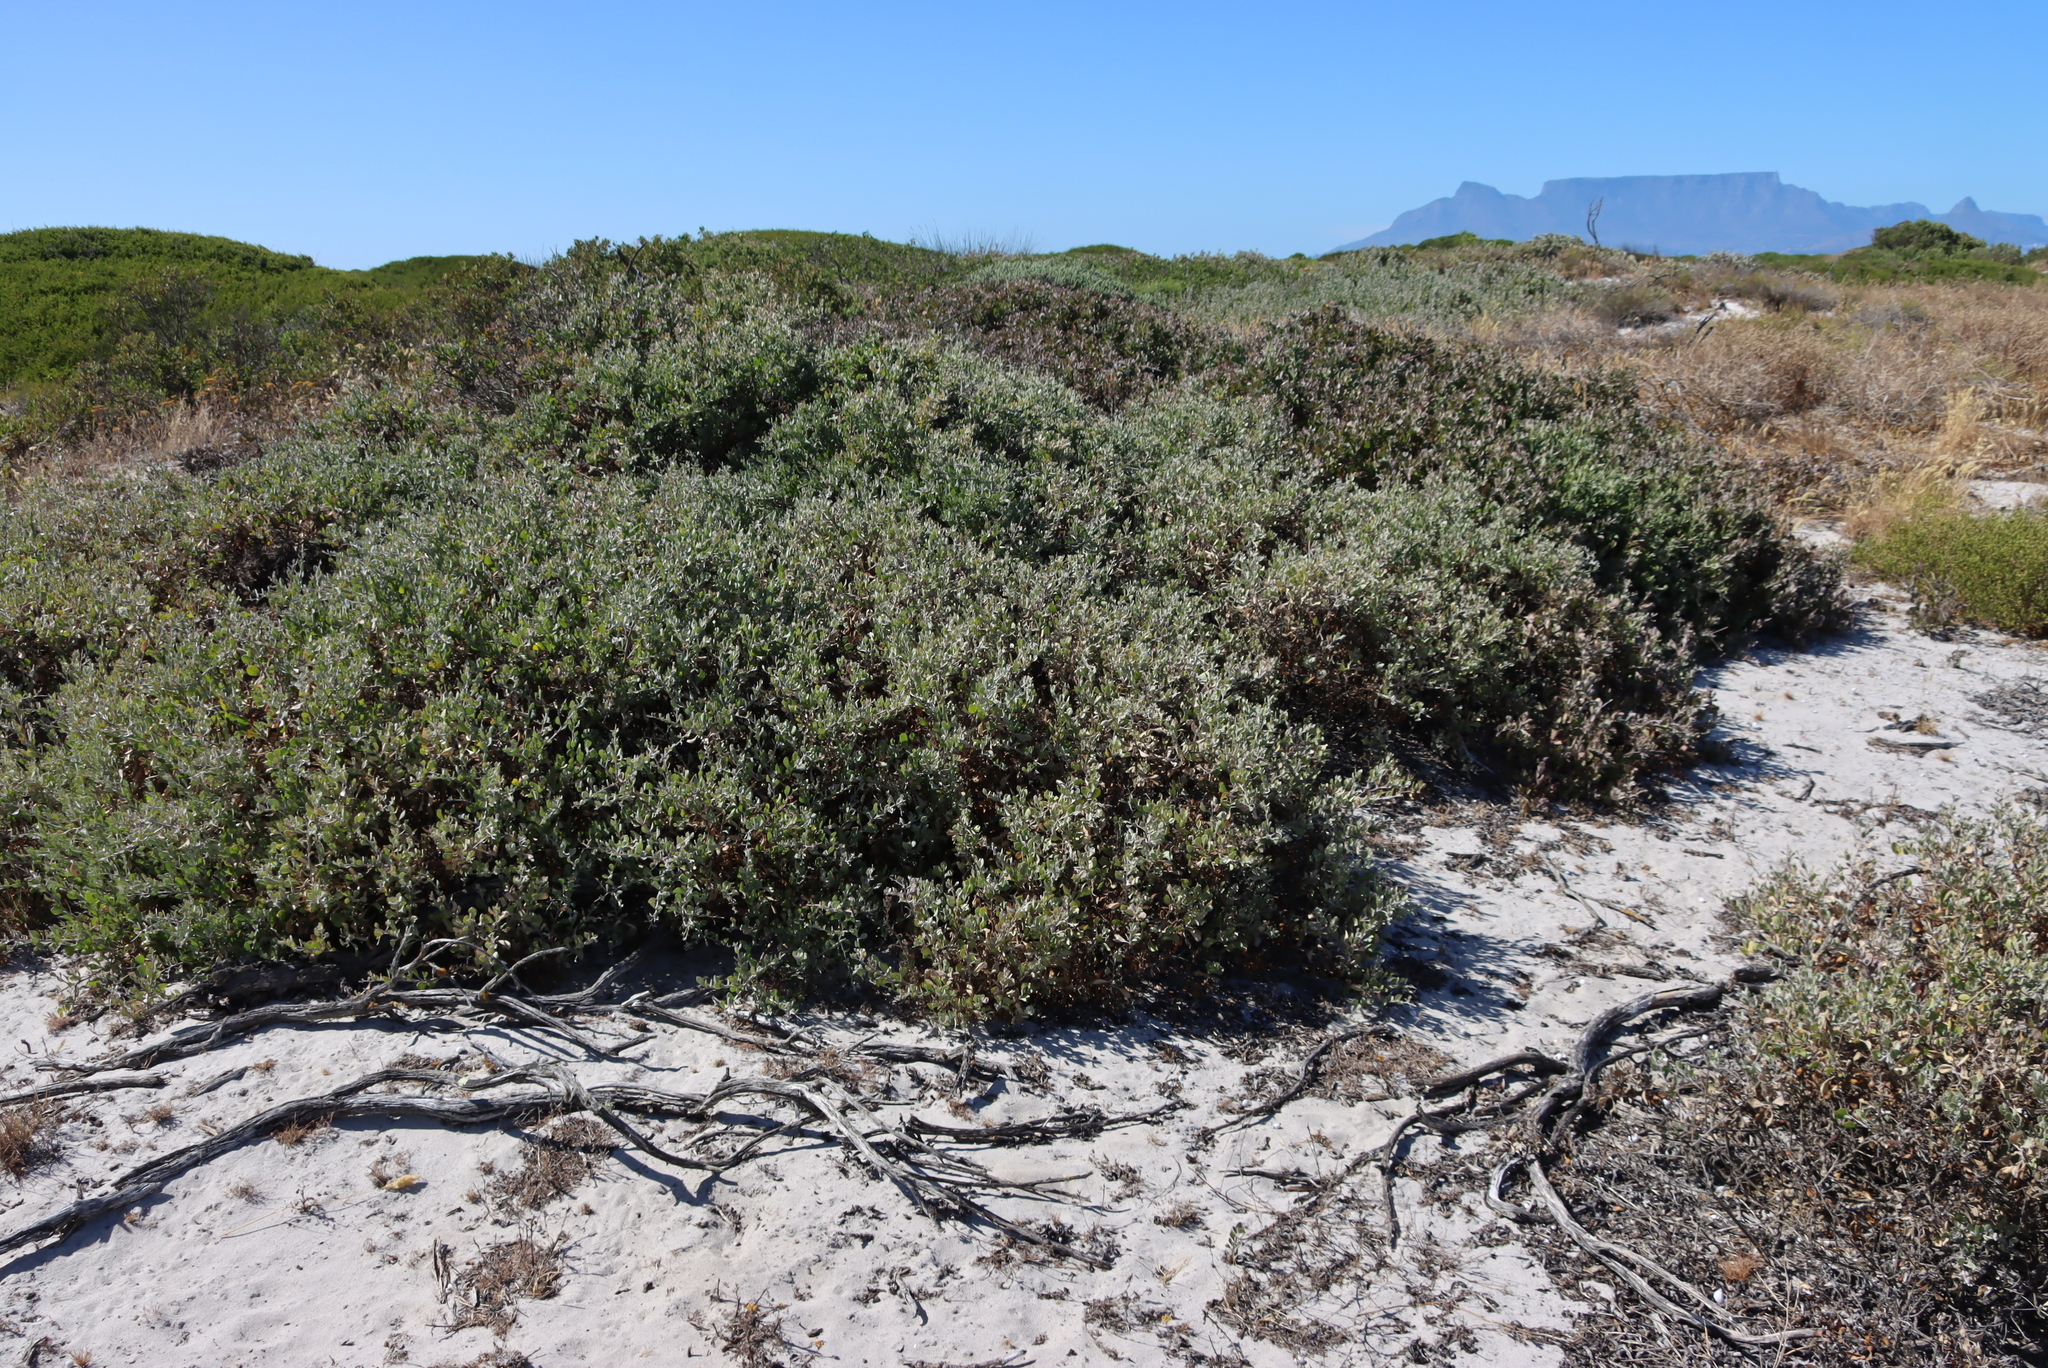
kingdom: Plantae
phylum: Tracheophyta
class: Magnoliopsida
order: Asterales
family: Asteraceae
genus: Osteospermum
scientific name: Osteospermum incanum
